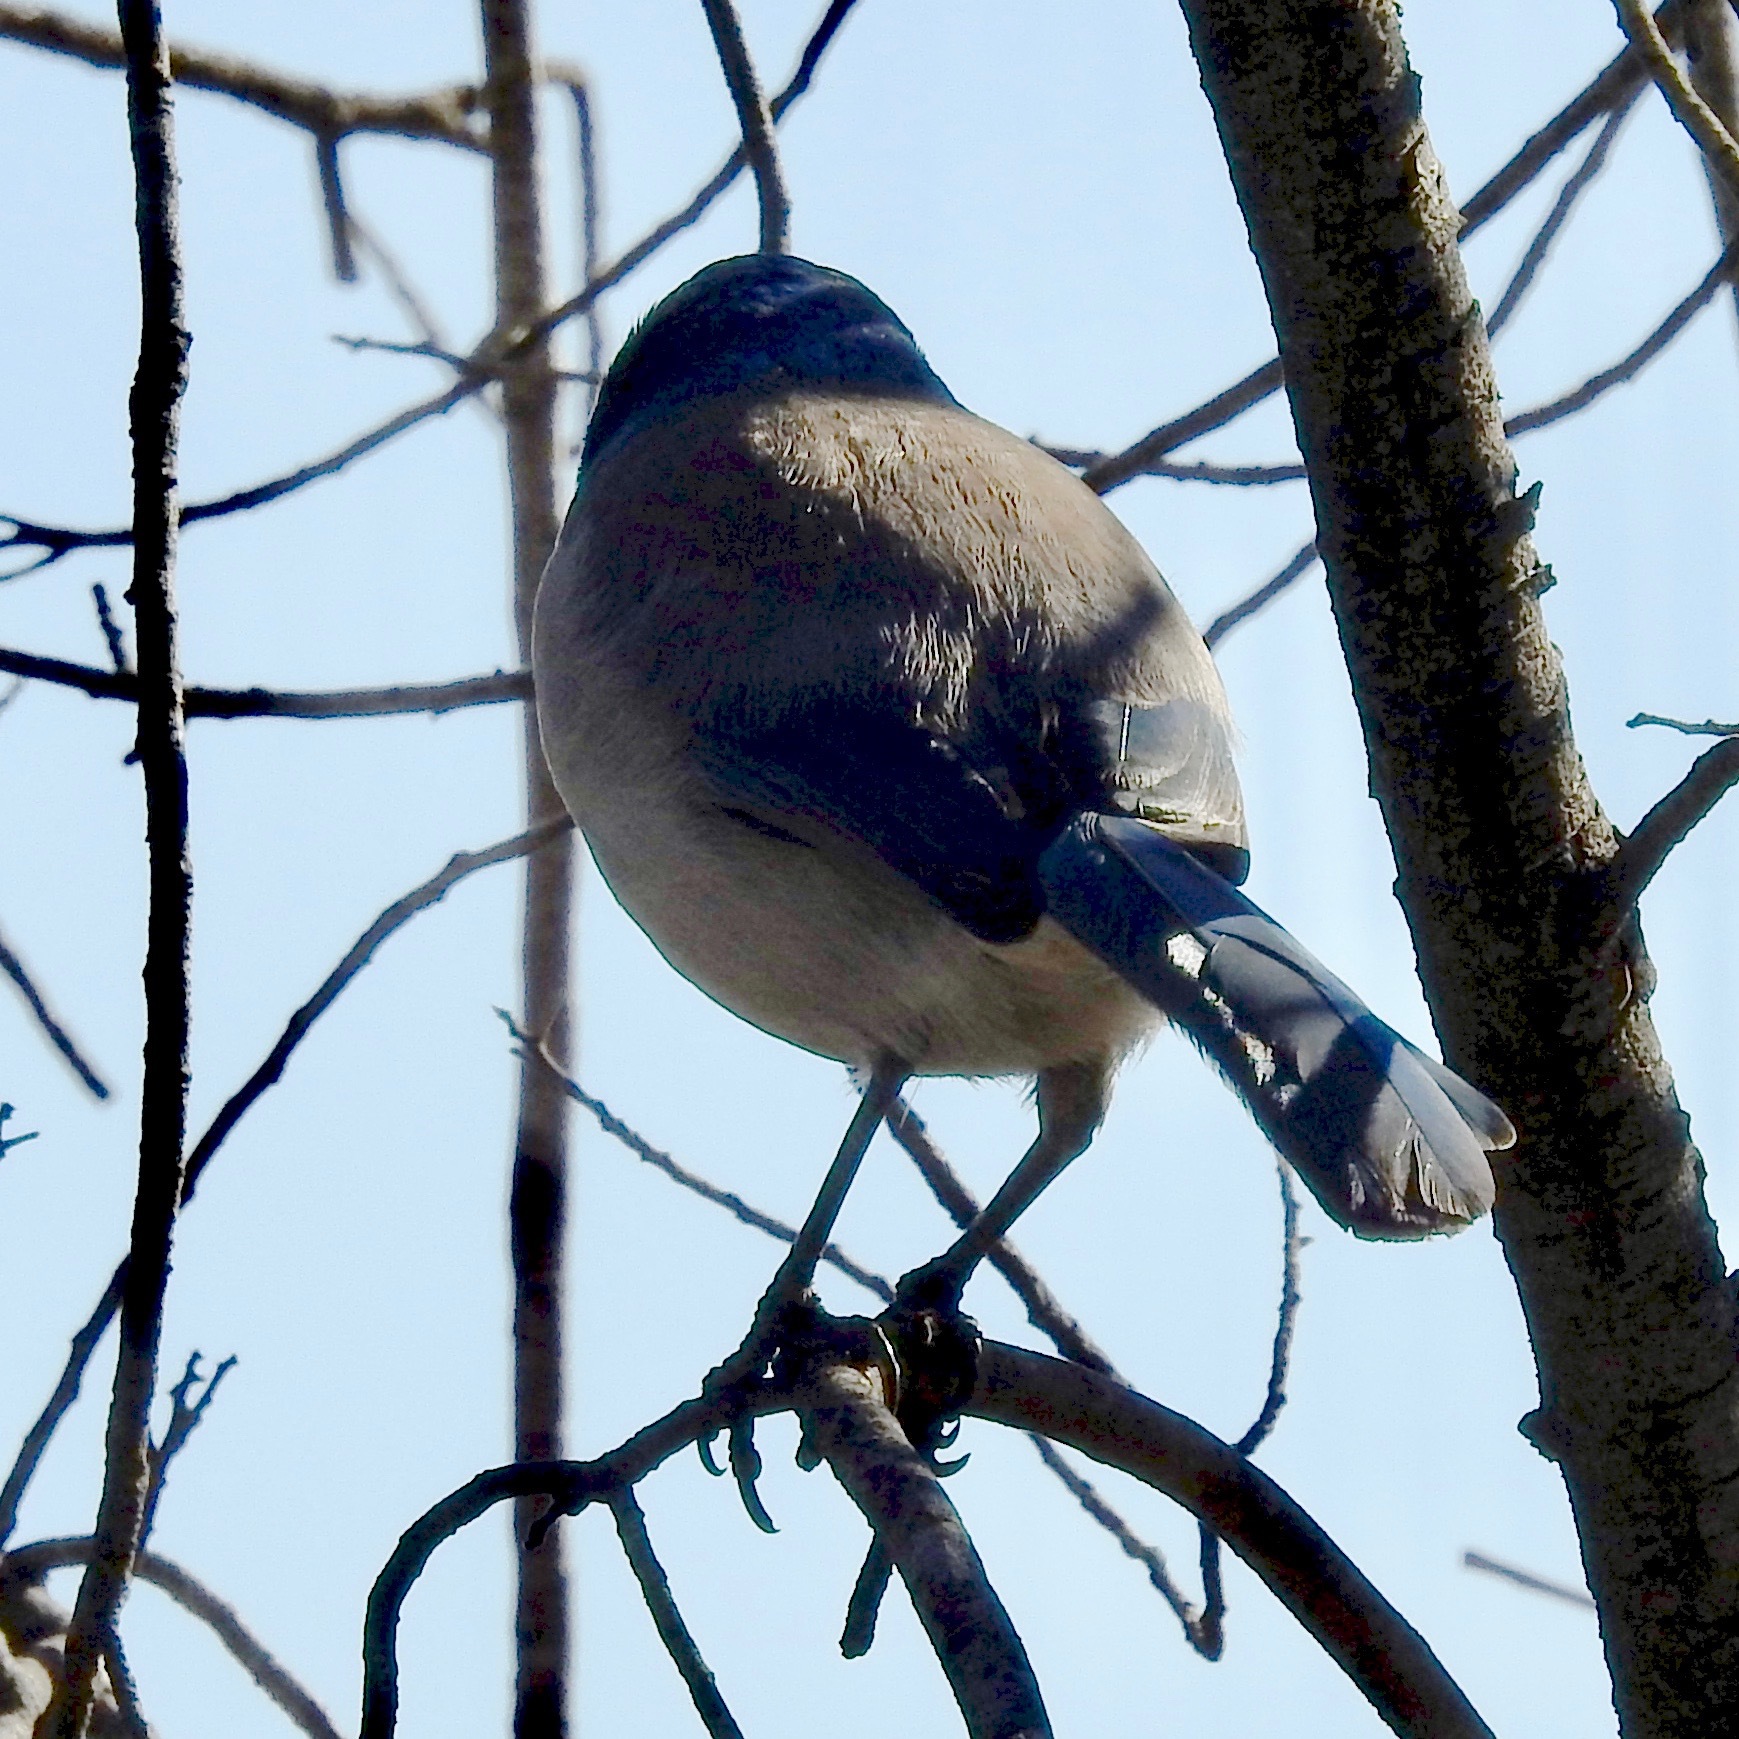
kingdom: Animalia
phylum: Chordata
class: Aves
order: Passeriformes
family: Corvidae
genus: Aphelocoma
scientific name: Aphelocoma californica
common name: California scrub-jay
